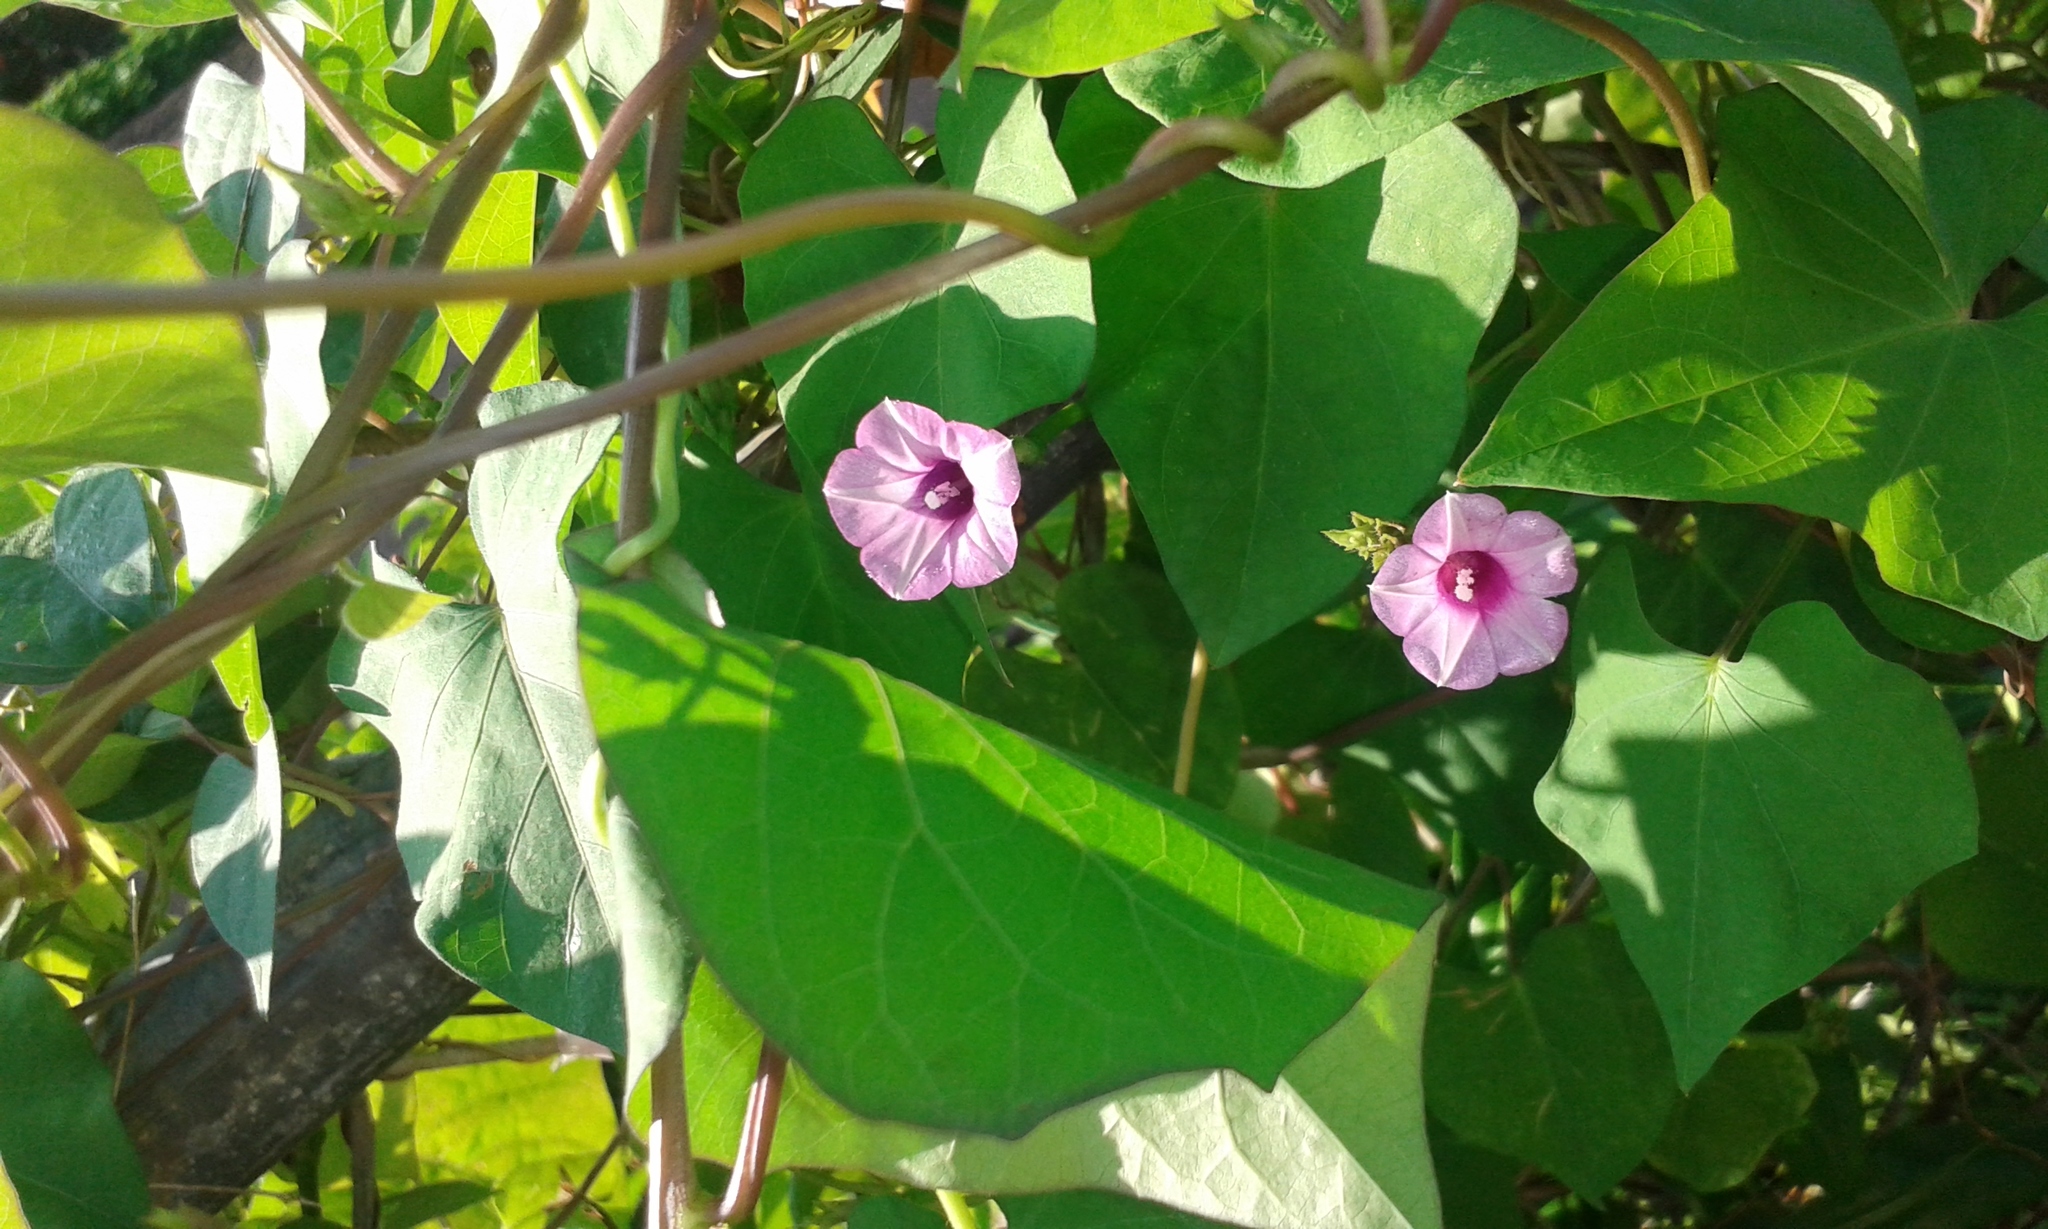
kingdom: Plantae
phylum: Tracheophyta
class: Magnoliopsida
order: Solanales
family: Convolvulaceae
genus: Ipomoea
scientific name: Ipomoea triloba
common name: Little-bell
